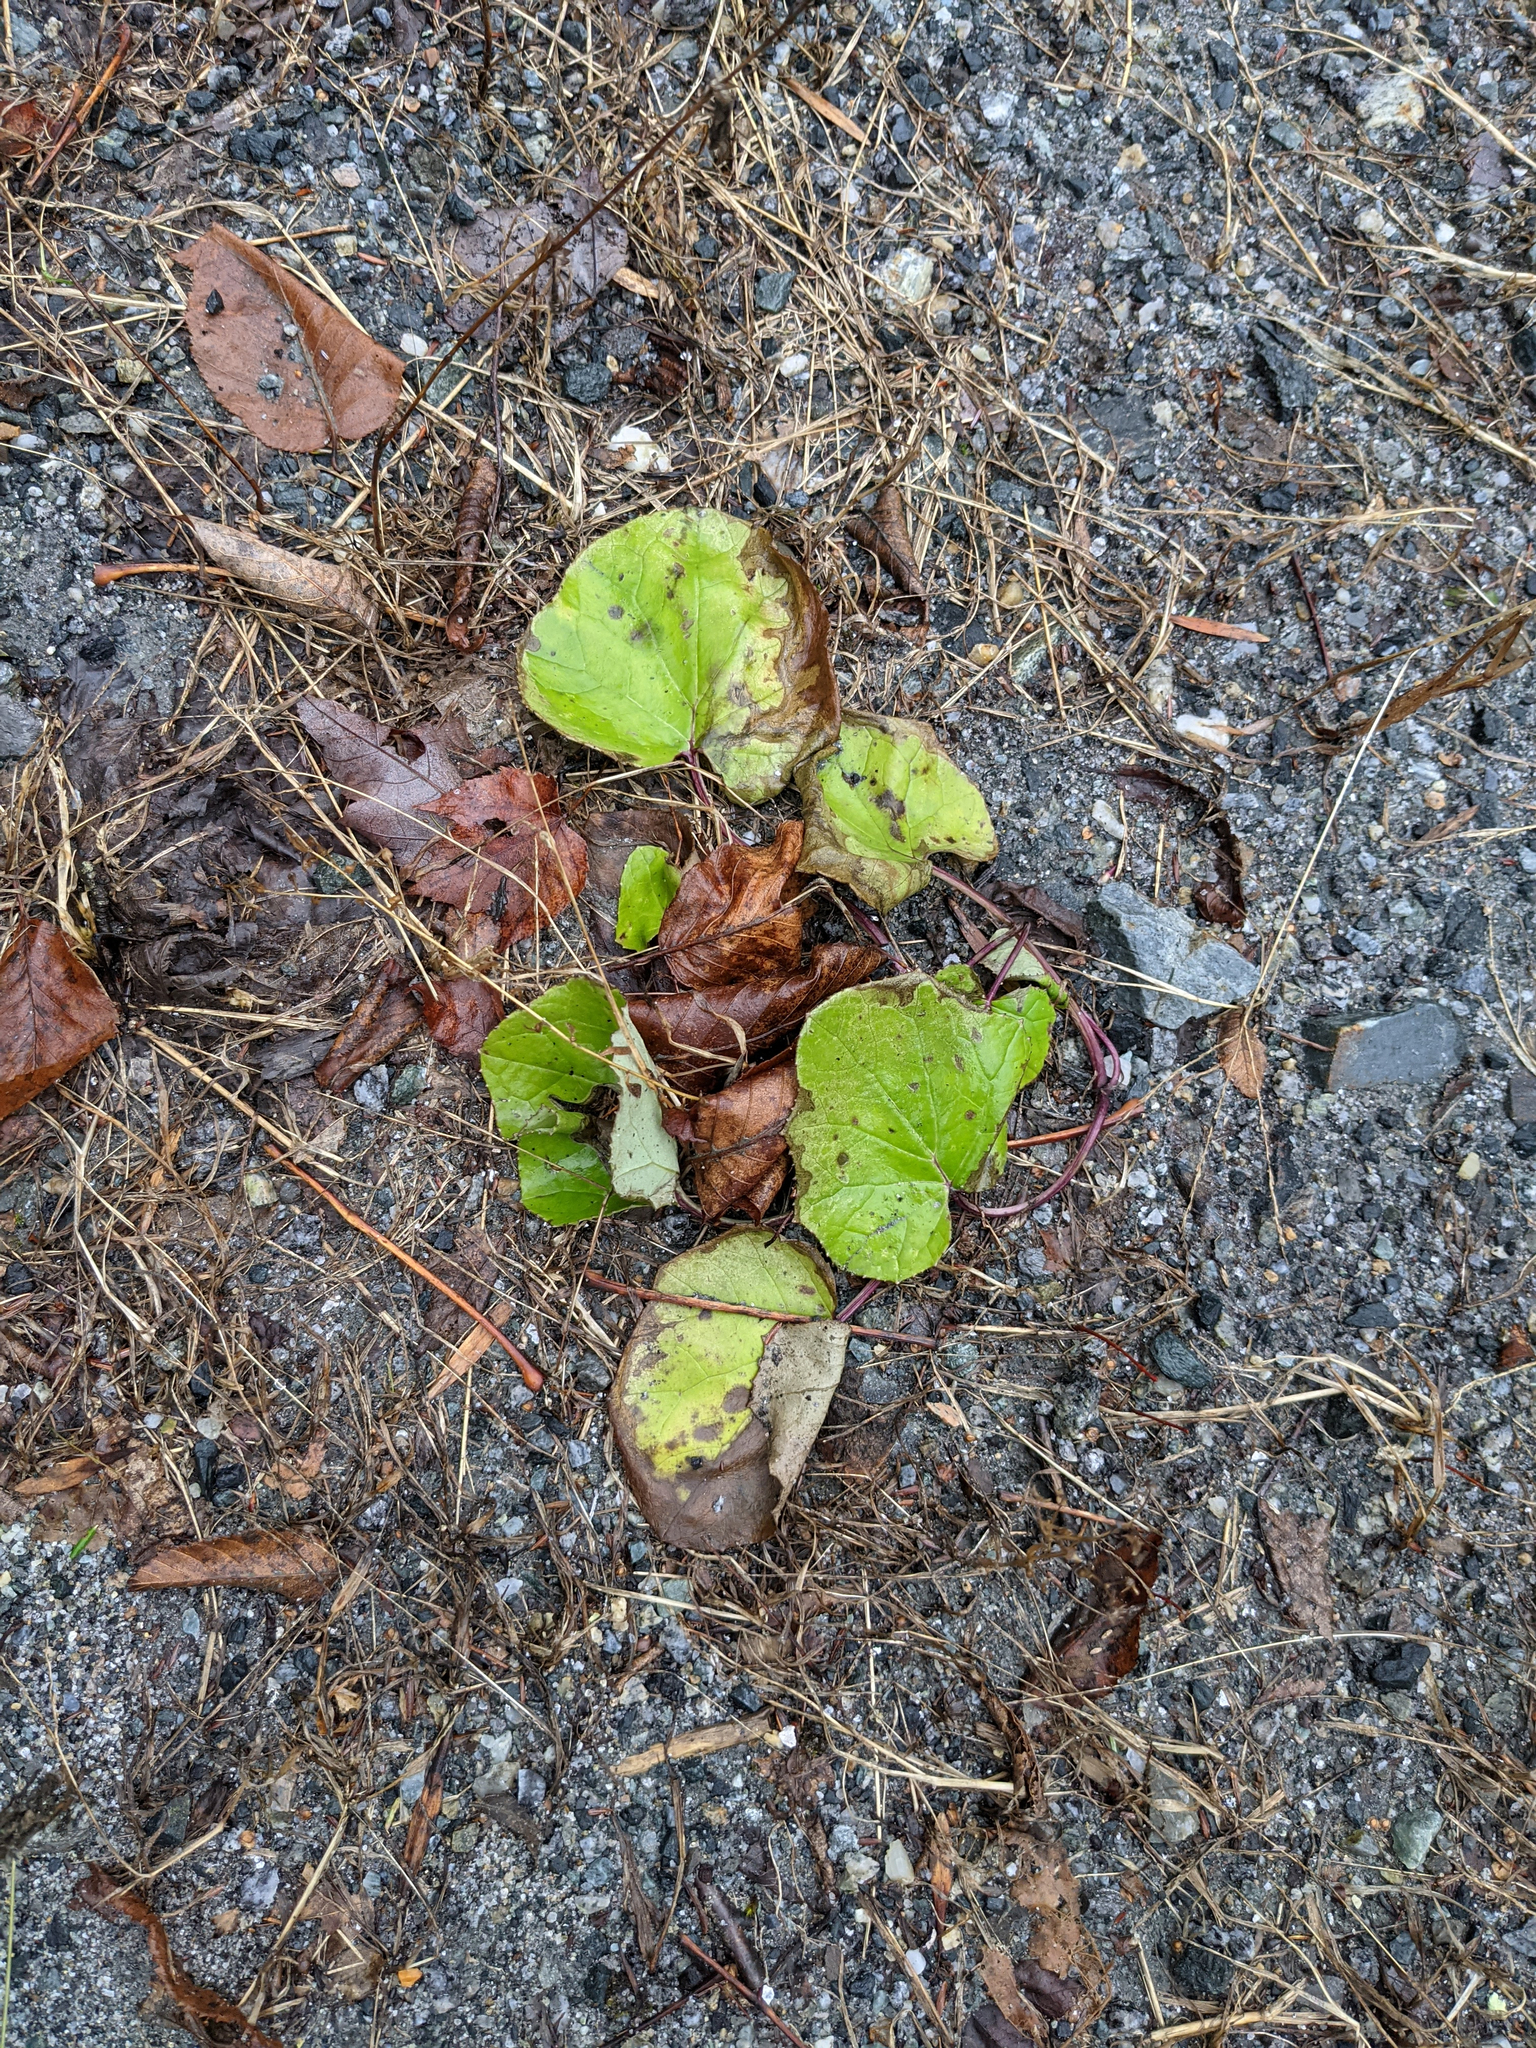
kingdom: Plantae
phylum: Tracheophyta
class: Magnoliopsida
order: Asterales
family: Asteraceae
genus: Tussilago
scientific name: Tussilago farfara
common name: Coltsfoot
